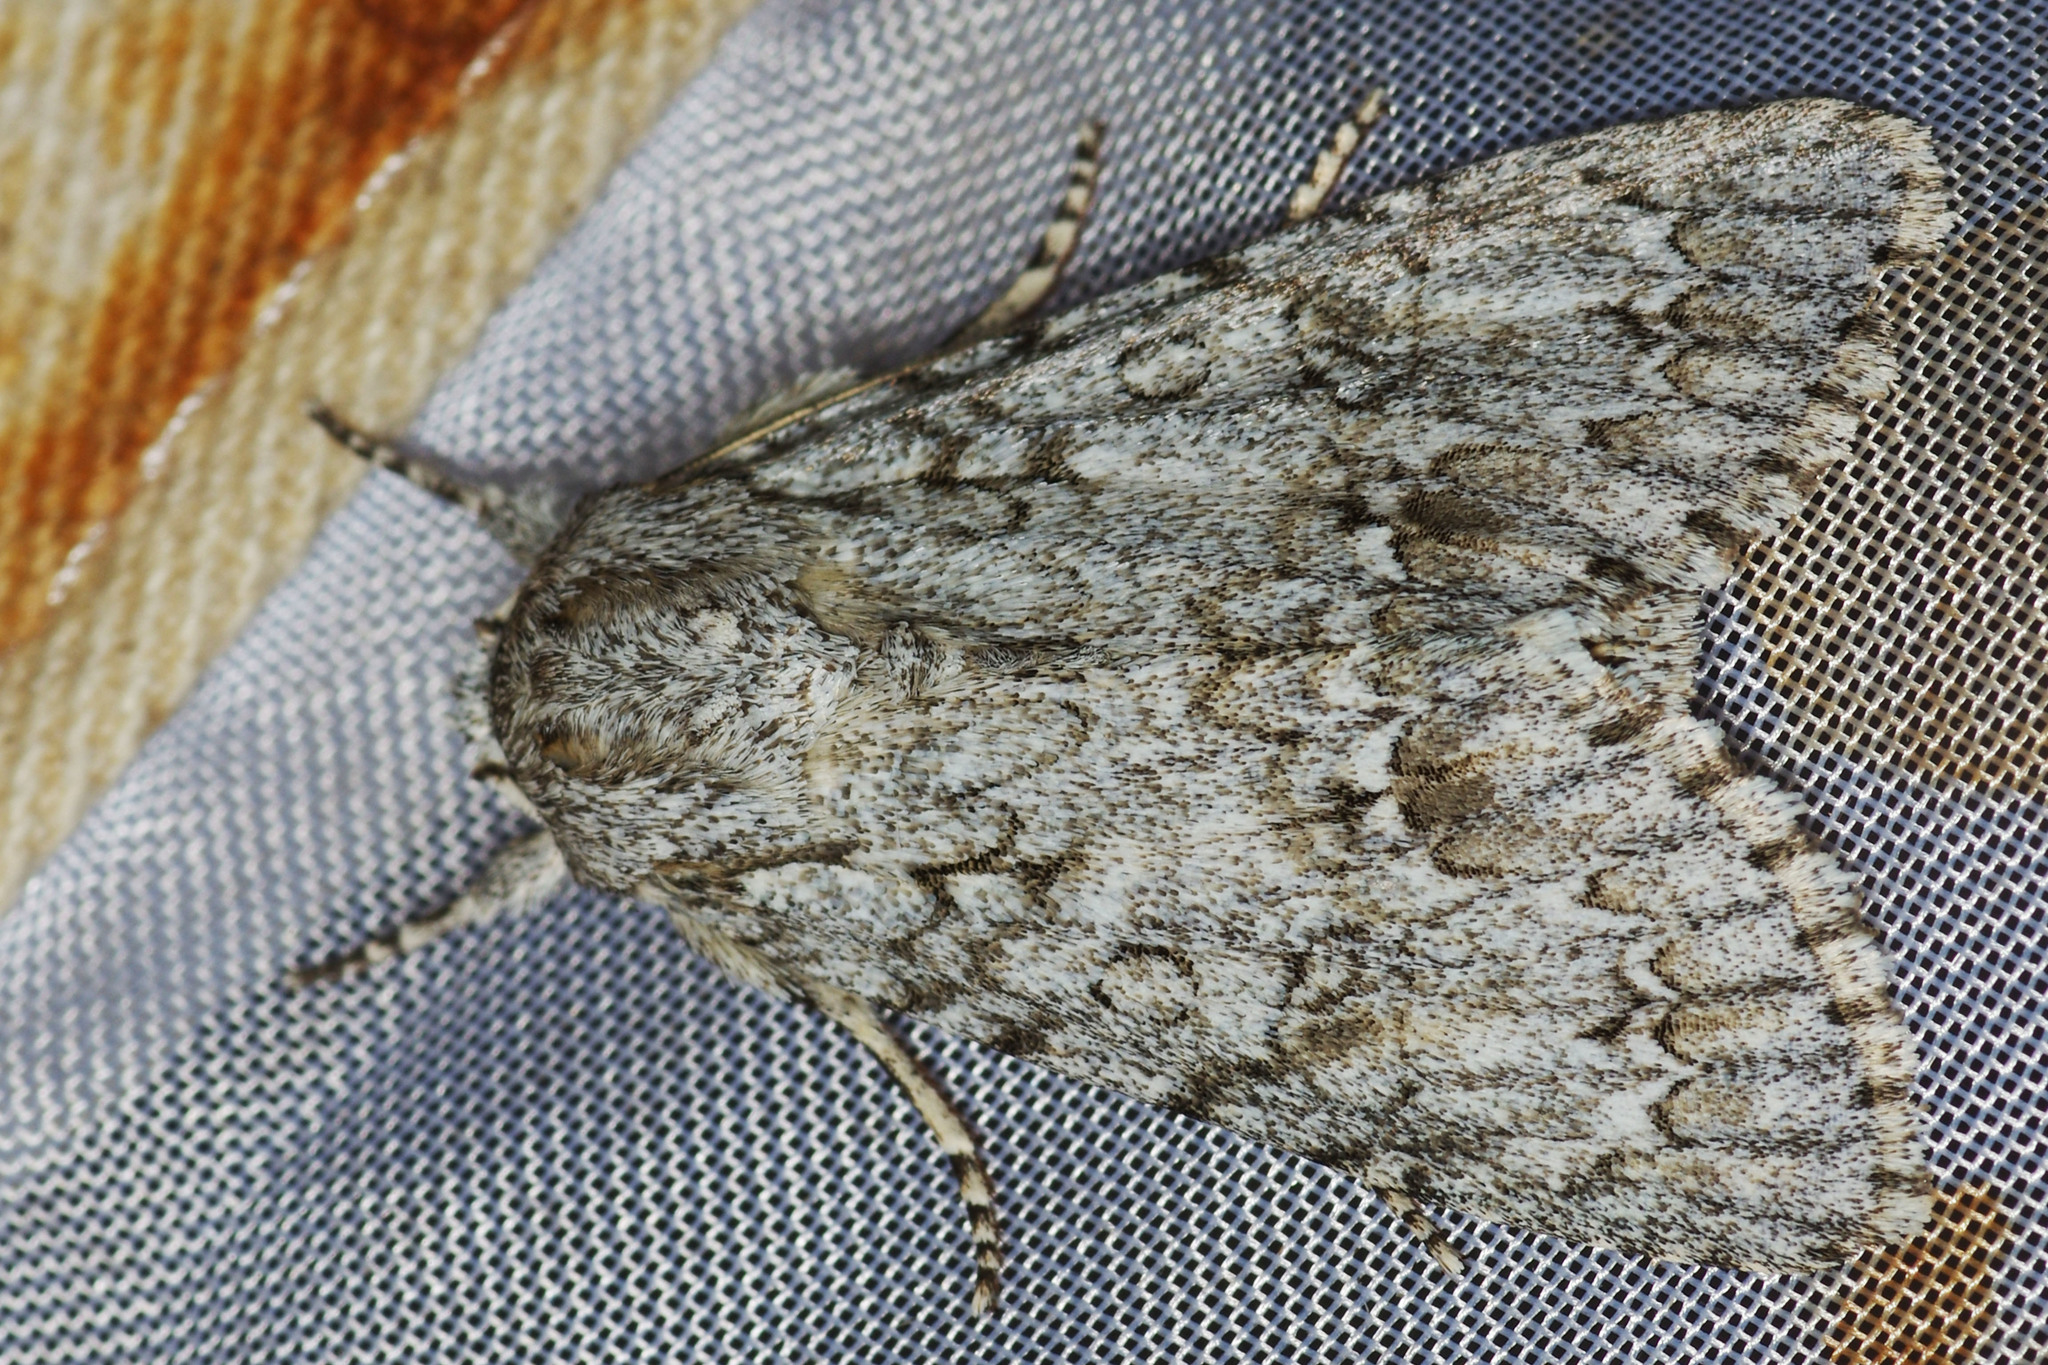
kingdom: Animalia
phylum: Arthropoda
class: Insecta
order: Lepidoptera
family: Noctuidae
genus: Acronicta
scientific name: Acronicta aceris
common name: Sycamore
